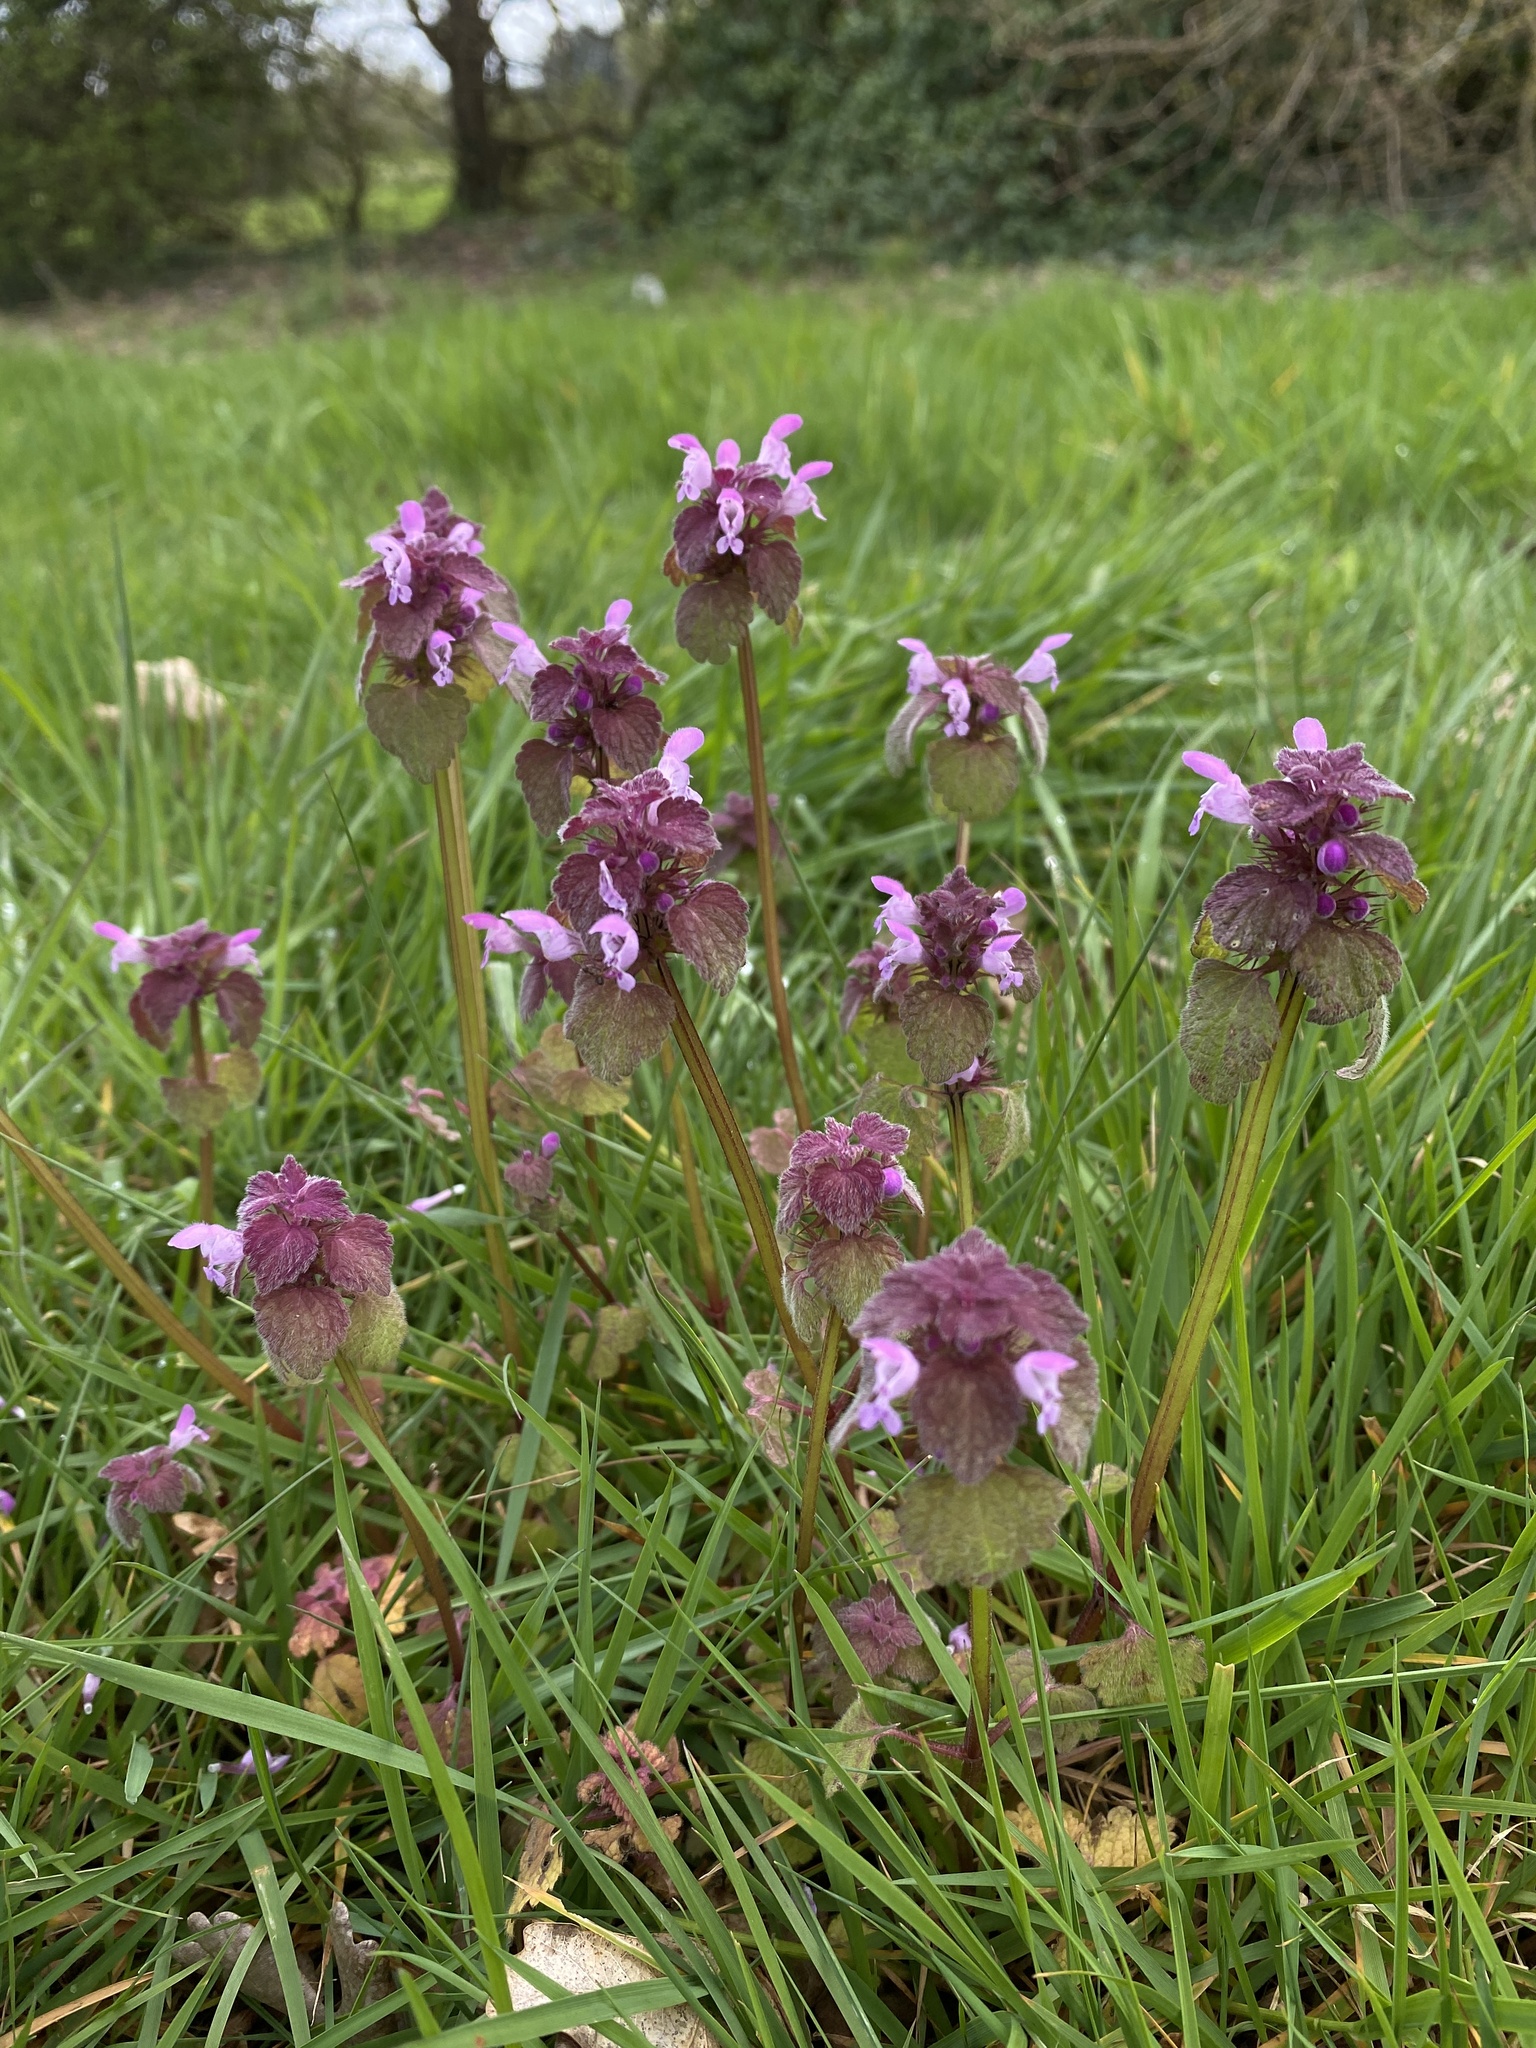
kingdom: Plantae
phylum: Tracheophyta
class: Magnoliopsida
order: Lamiales
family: Lamiaceae
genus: Lamium
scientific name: Lamium purpureum
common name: Red dead-nettle
